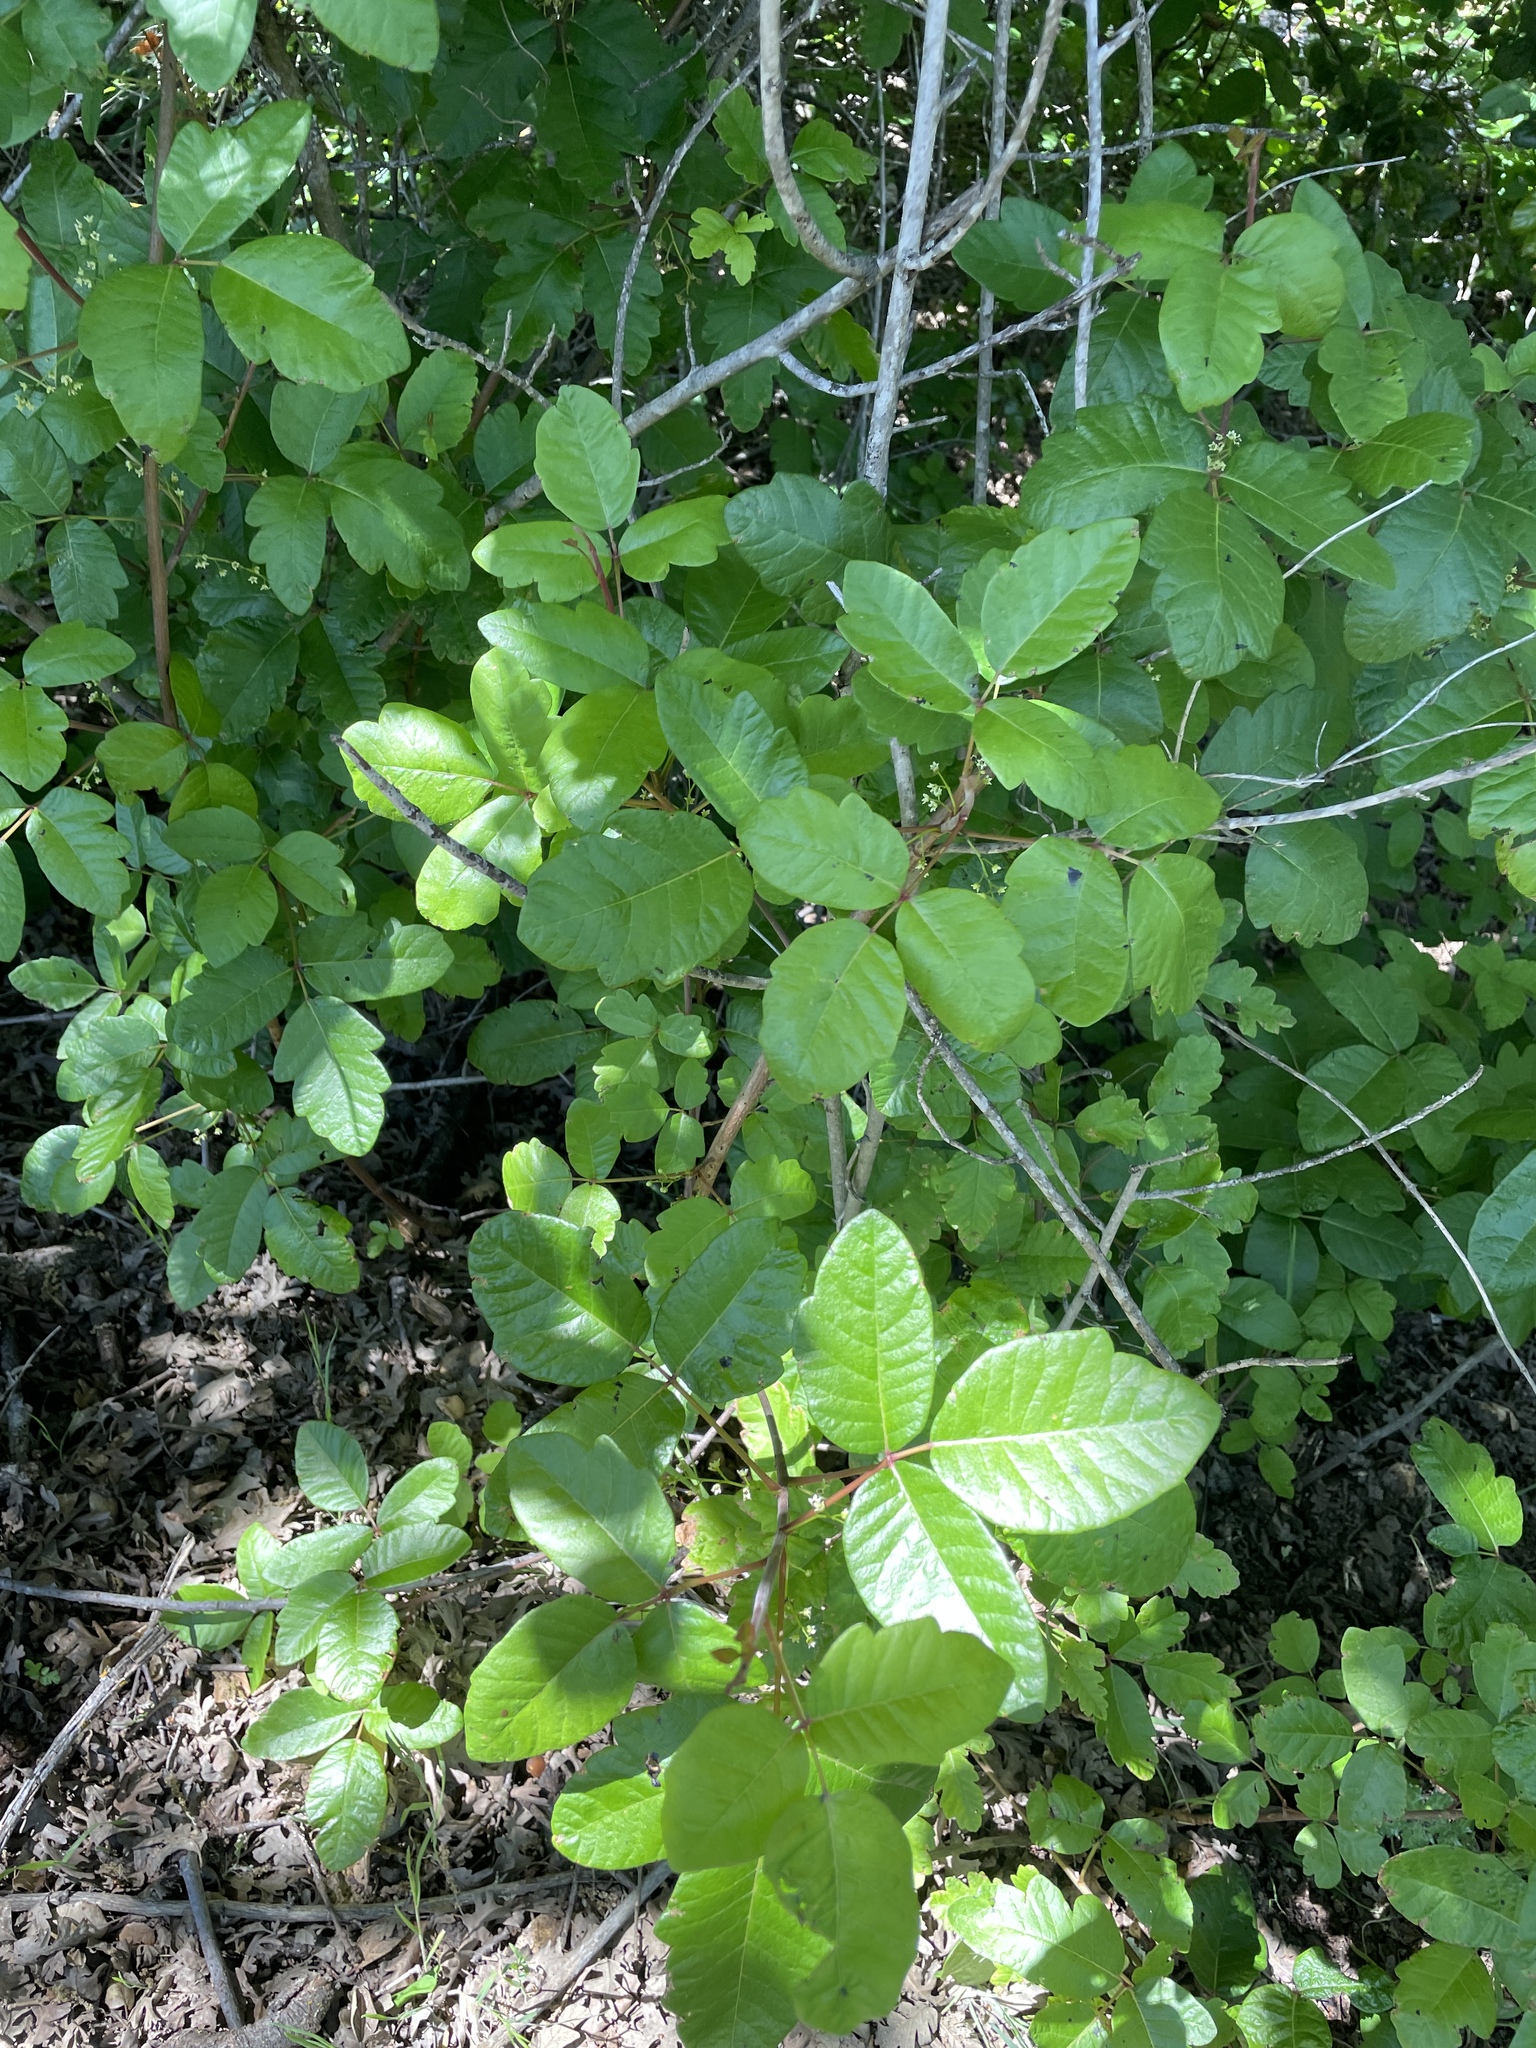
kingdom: Plantae
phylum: Tracheophyta
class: Magnoliopsida
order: Sapindales
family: Anacardiaceae
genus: Toxicodendron
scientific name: Toxicodendron diversilobum
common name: Pacific poison-oak
